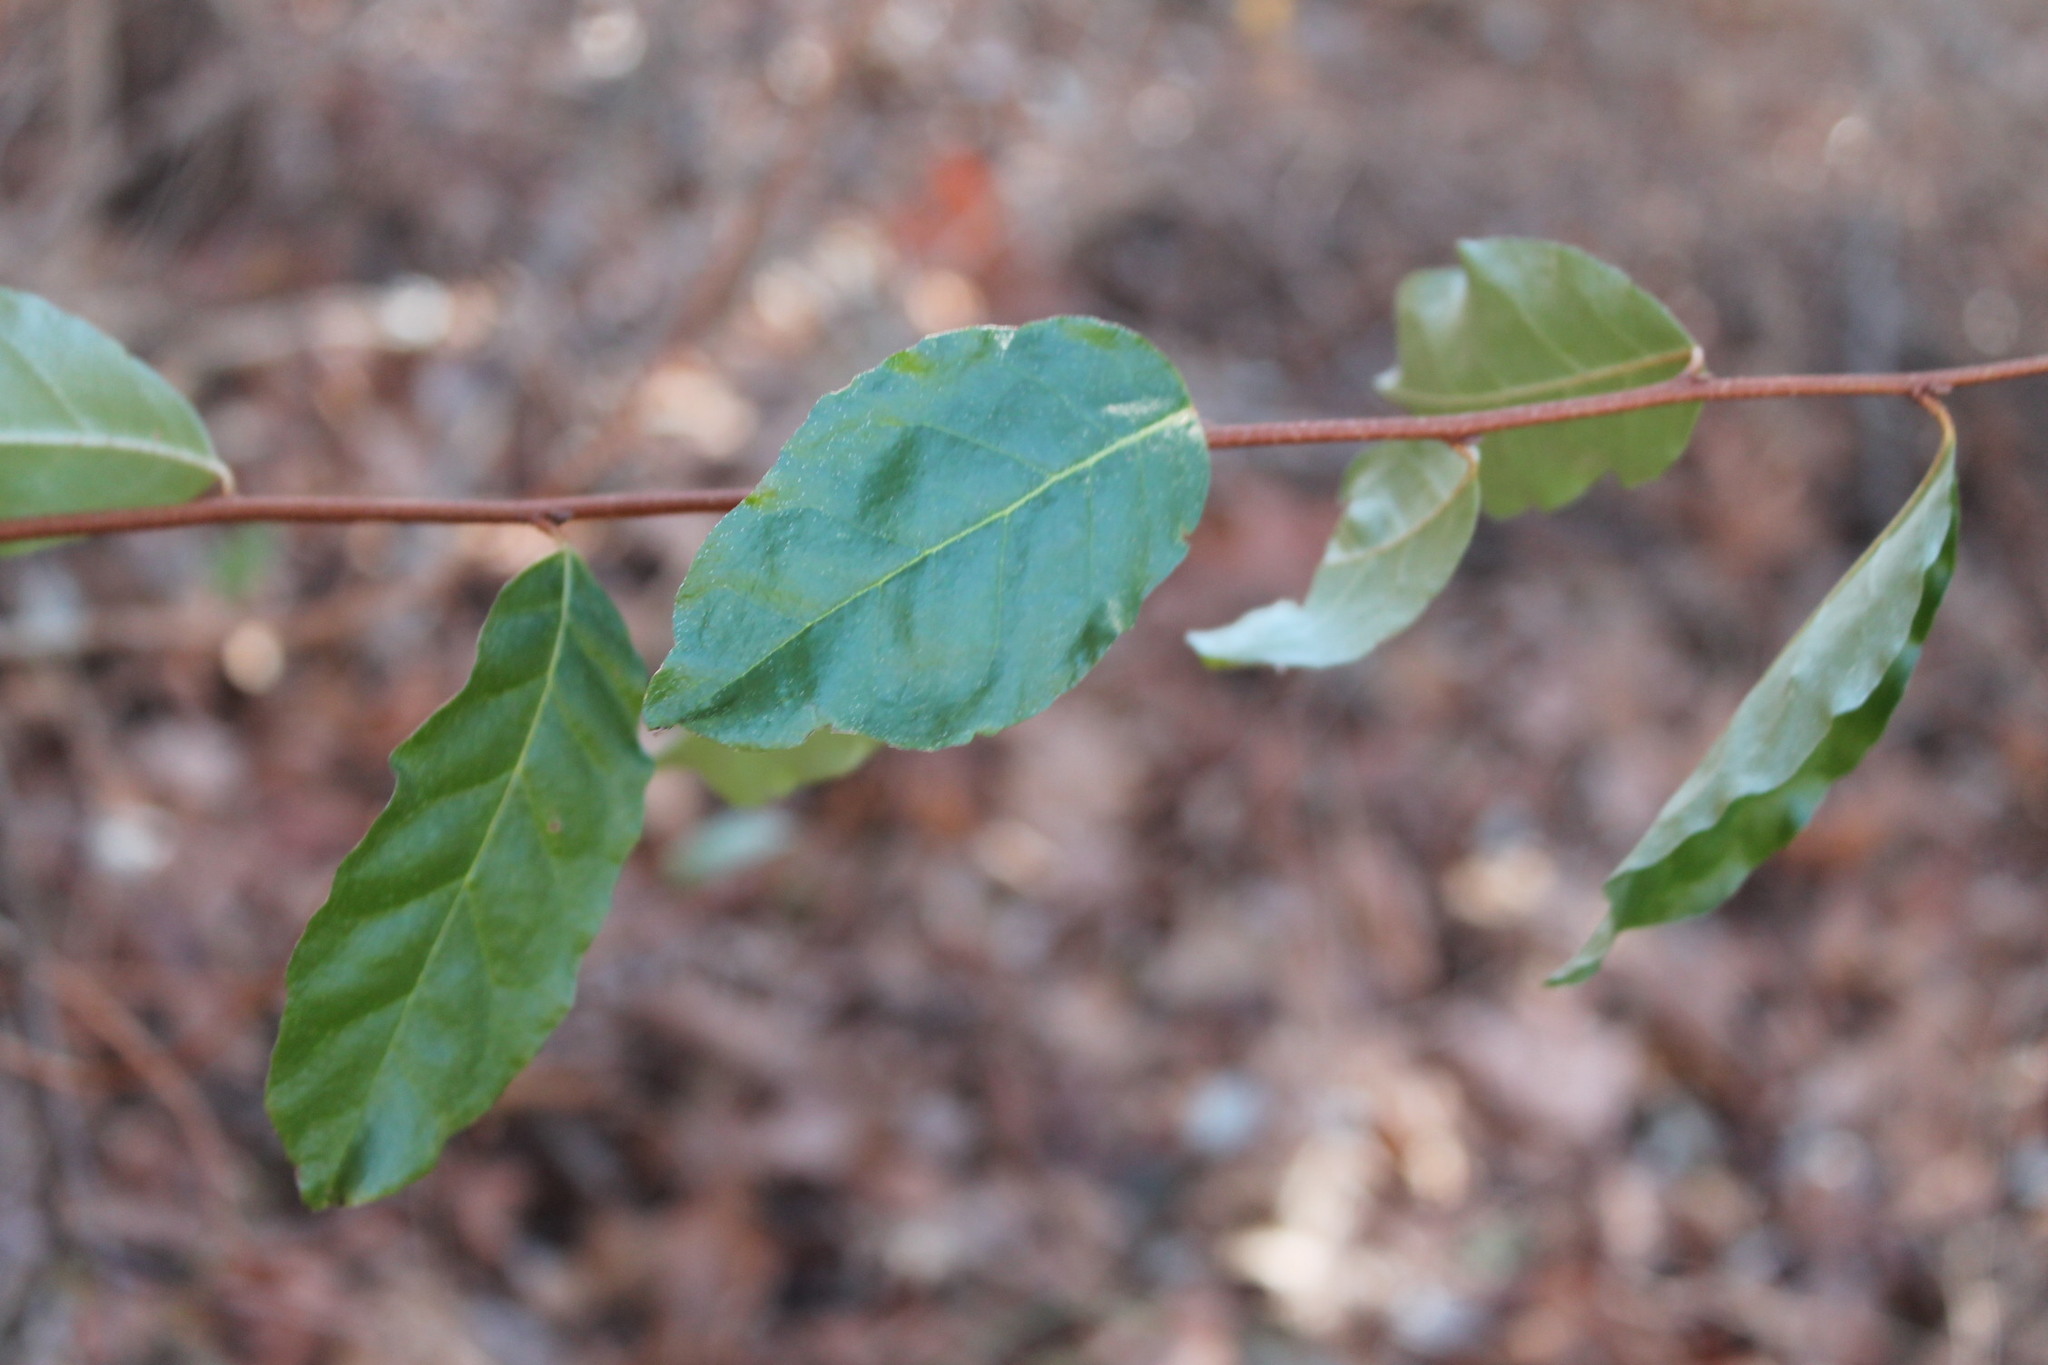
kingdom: Plantae
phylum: Tracheophyta
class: Magnoliopsida
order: Rosales
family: Elaeagnaceae
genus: Elaeagnus
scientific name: Elaeagnus umbellata
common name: Autumn olive
